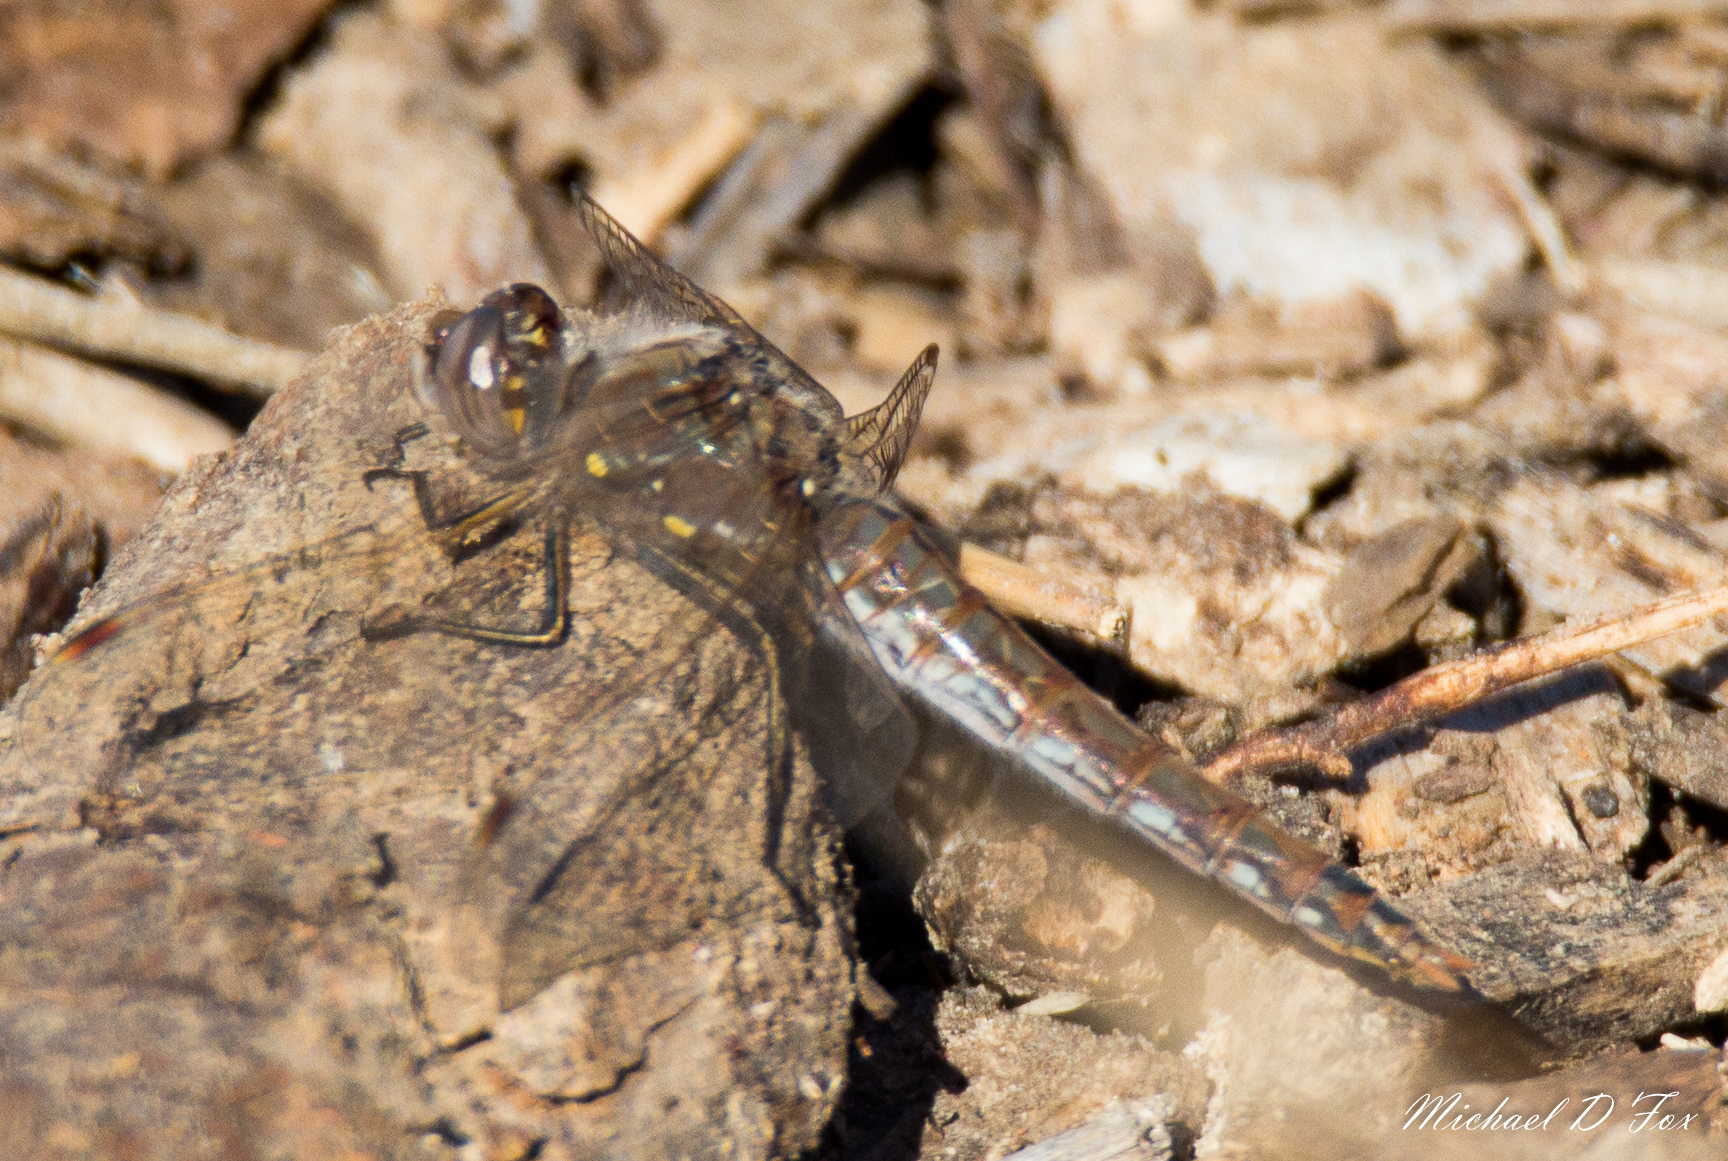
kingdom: Animalia
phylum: Arthropoda
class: Insecta
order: Odonata
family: Libellulidae
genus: Sympetrum
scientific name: Sympetrum corruptum
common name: Variegated meadowhawk
